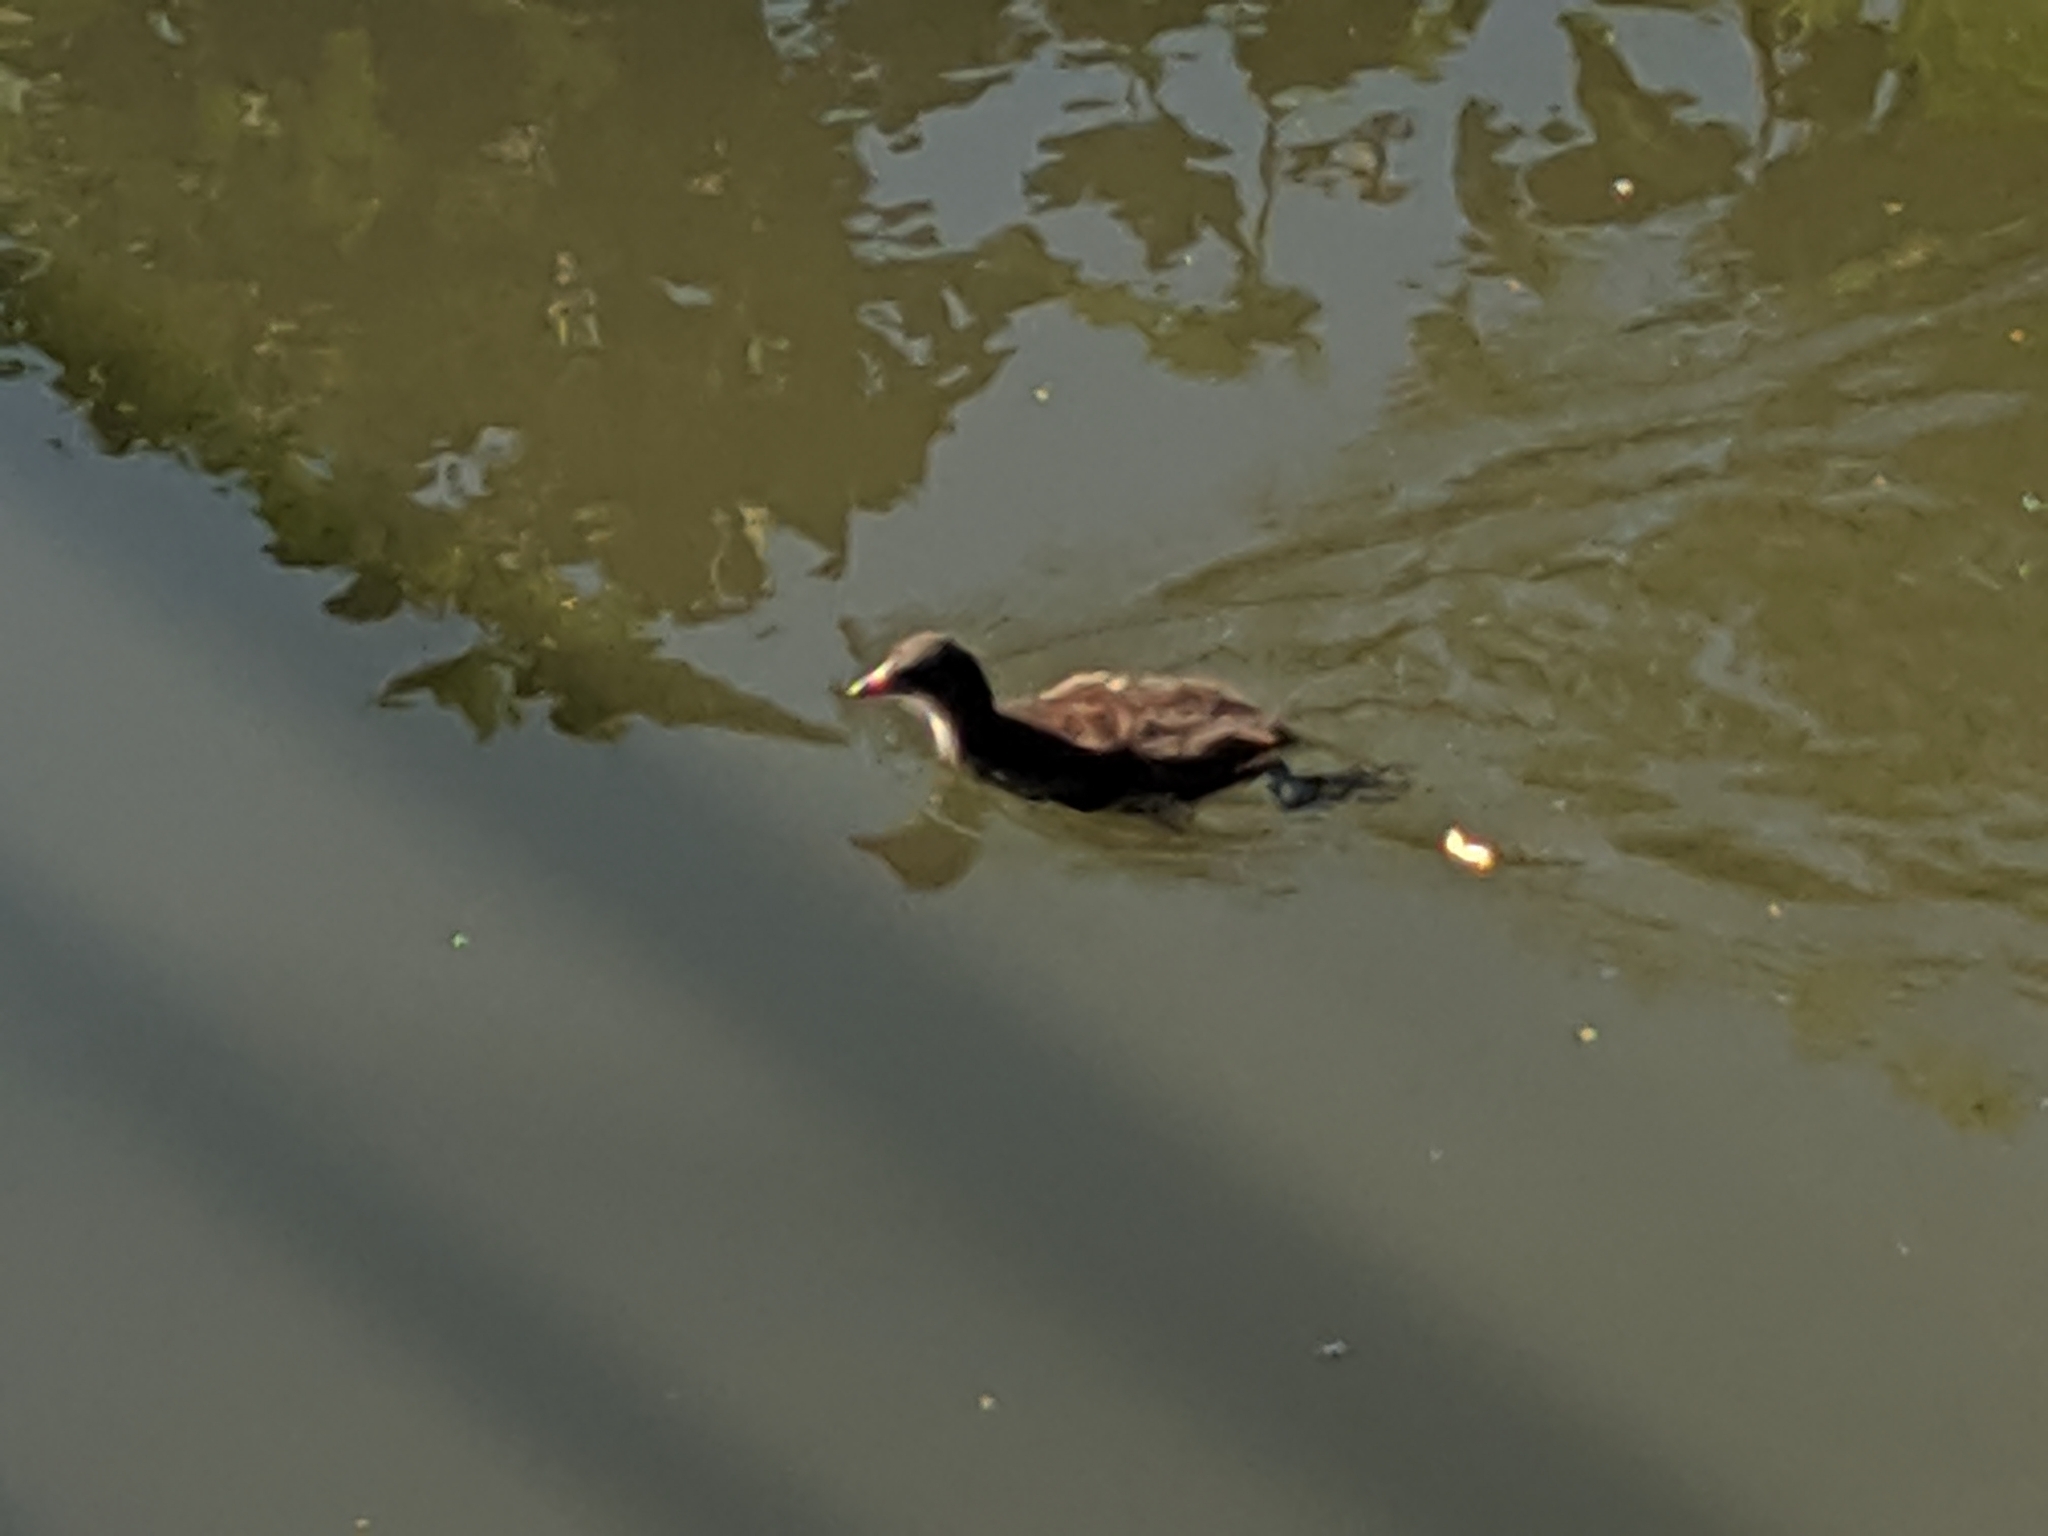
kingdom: Animalia
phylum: Chordata
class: Aves
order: Gruiformes
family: Rallidae
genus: Gallinula
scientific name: Gallinula chloropus
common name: Common moorhen
